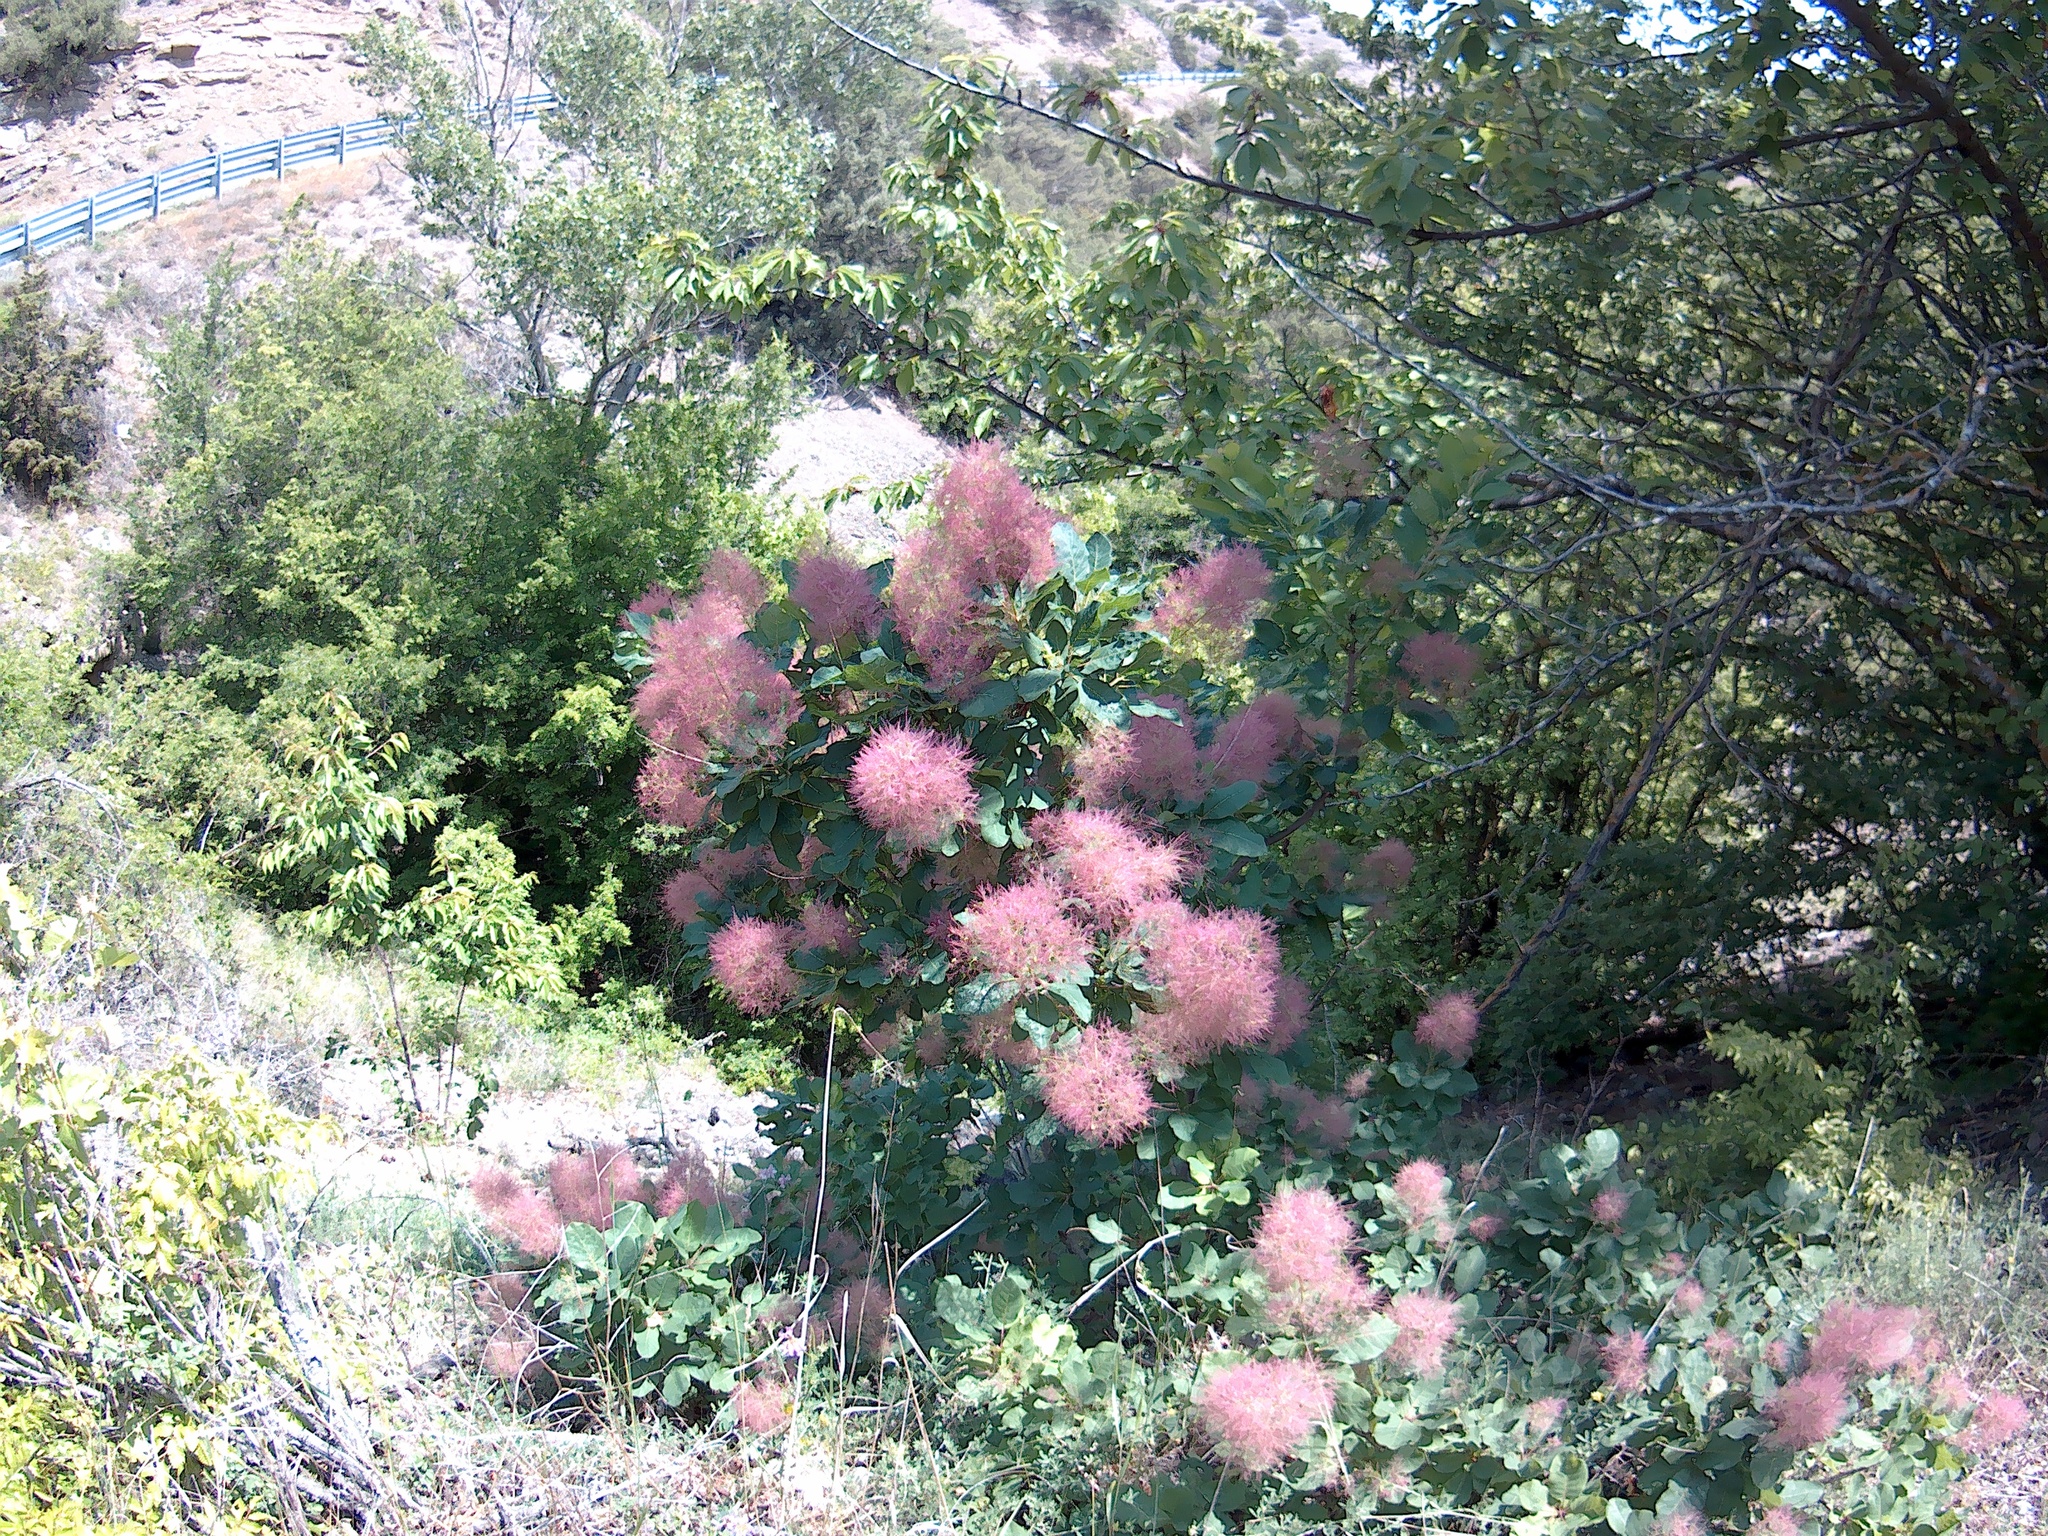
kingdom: Plantae
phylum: Tracheophyta
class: Magnoliopsida
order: Sapindales
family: Anacardiaceae
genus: Cotinus
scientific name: Cotinus coggygria
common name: Smoke-tree
